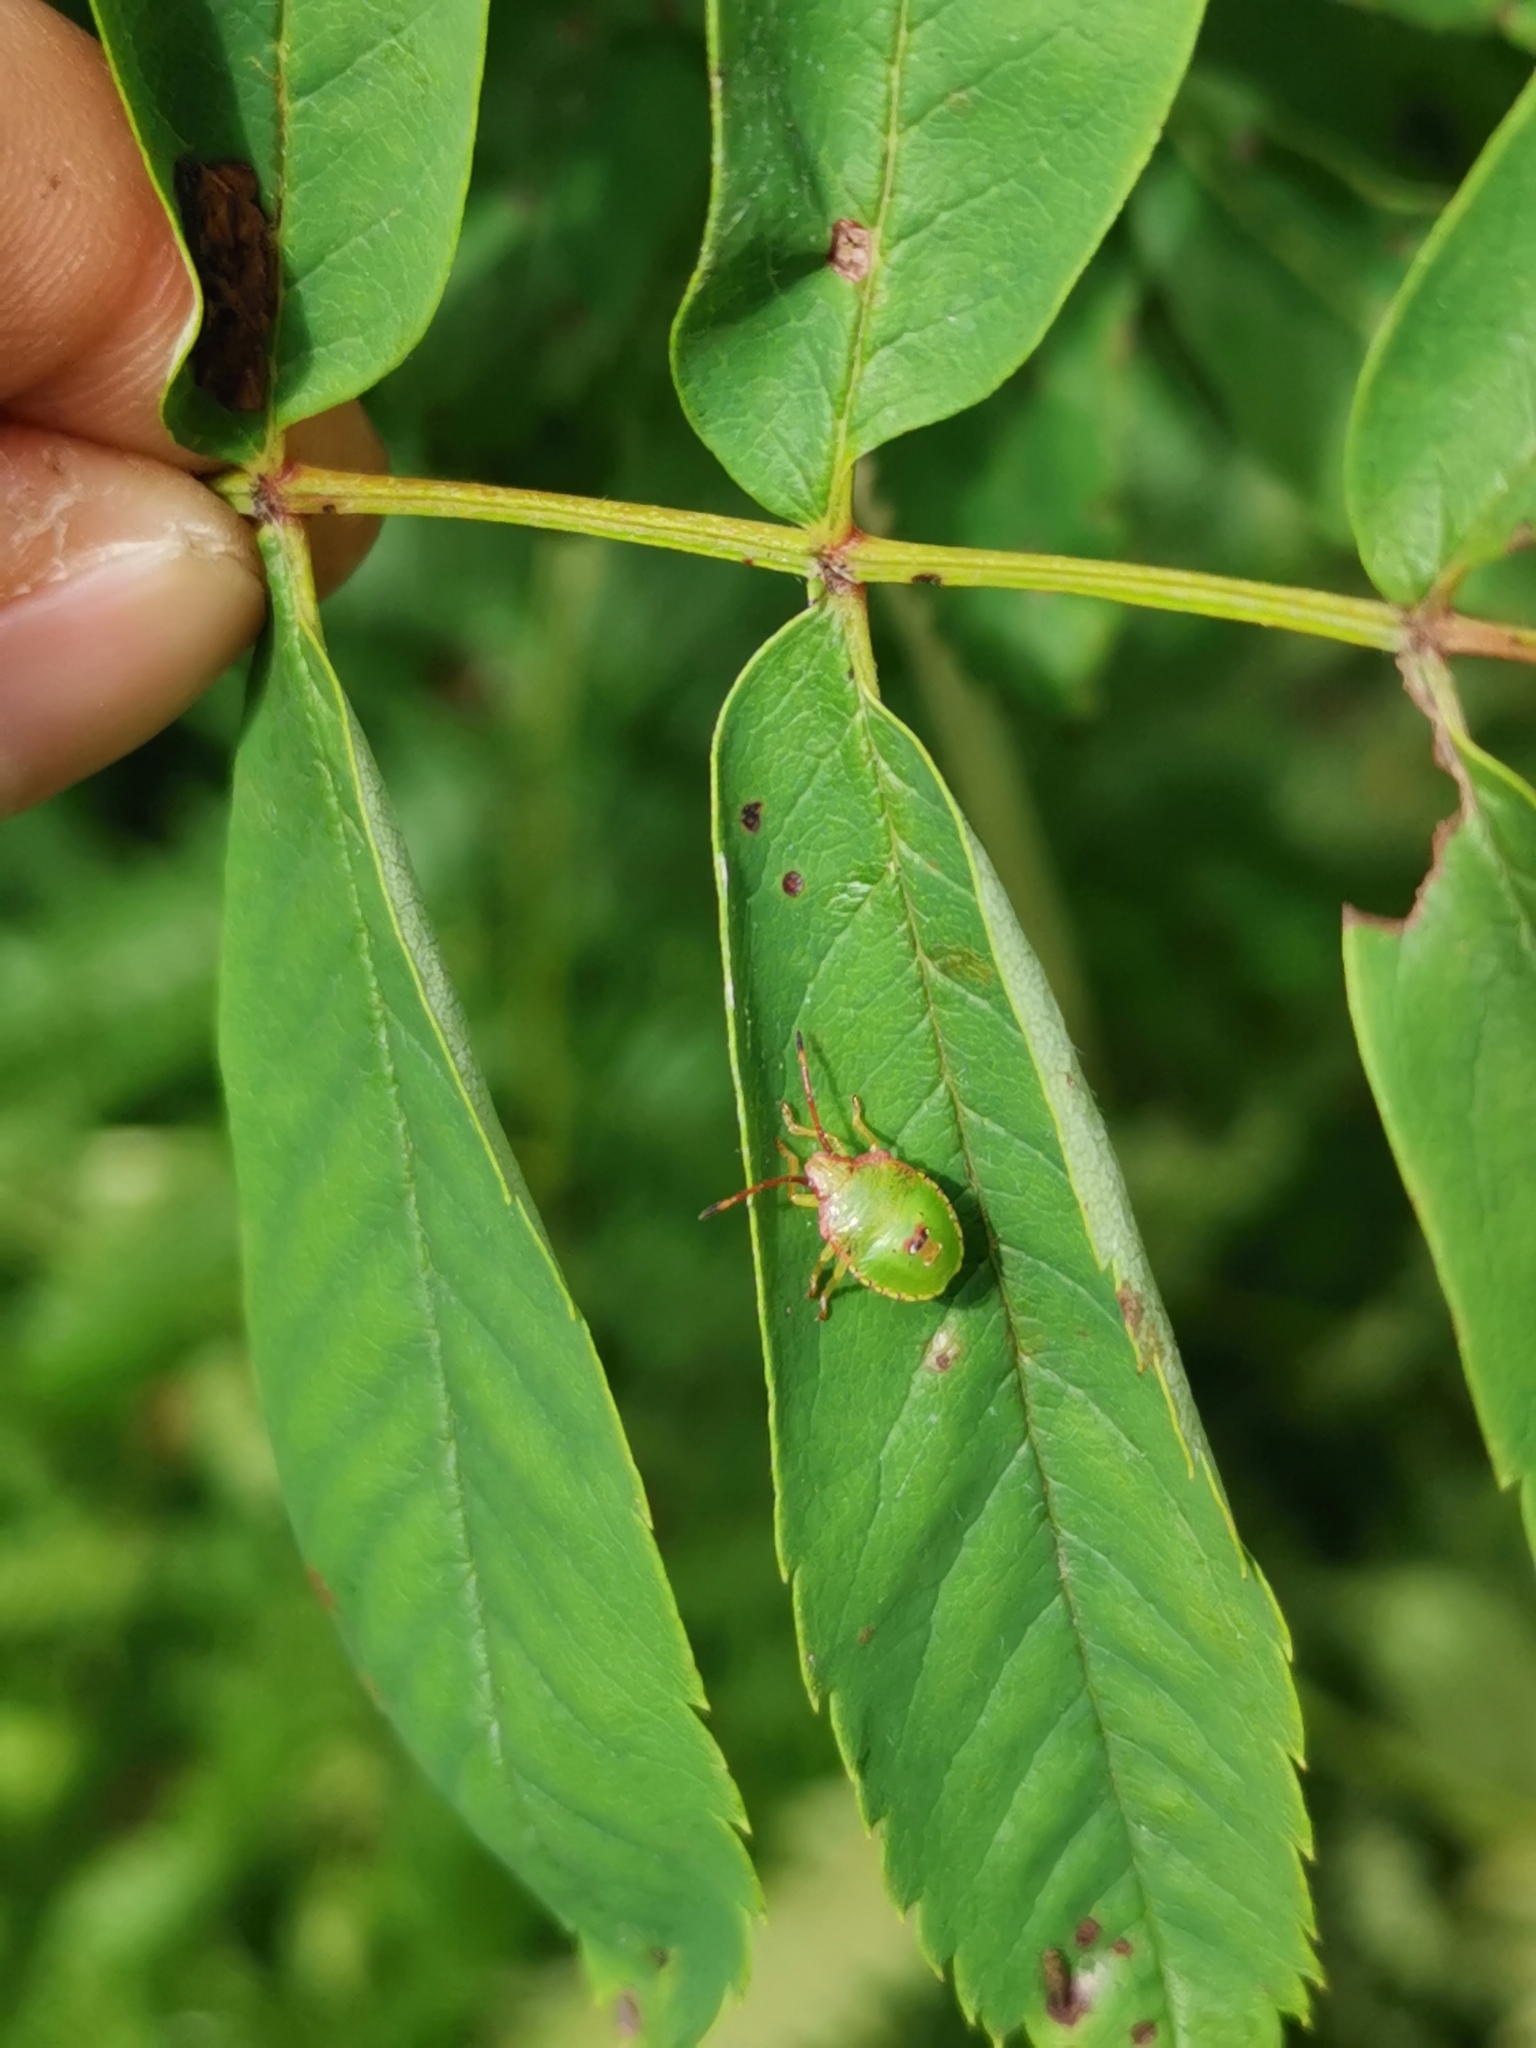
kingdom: Animalia
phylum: Arthropoda
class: Insecta
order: Hemiptera
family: Acanthosomatidae
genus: Acanthosoma
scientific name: Acanthosoma haemorrhoidale
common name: Hawthorn shieldbug
